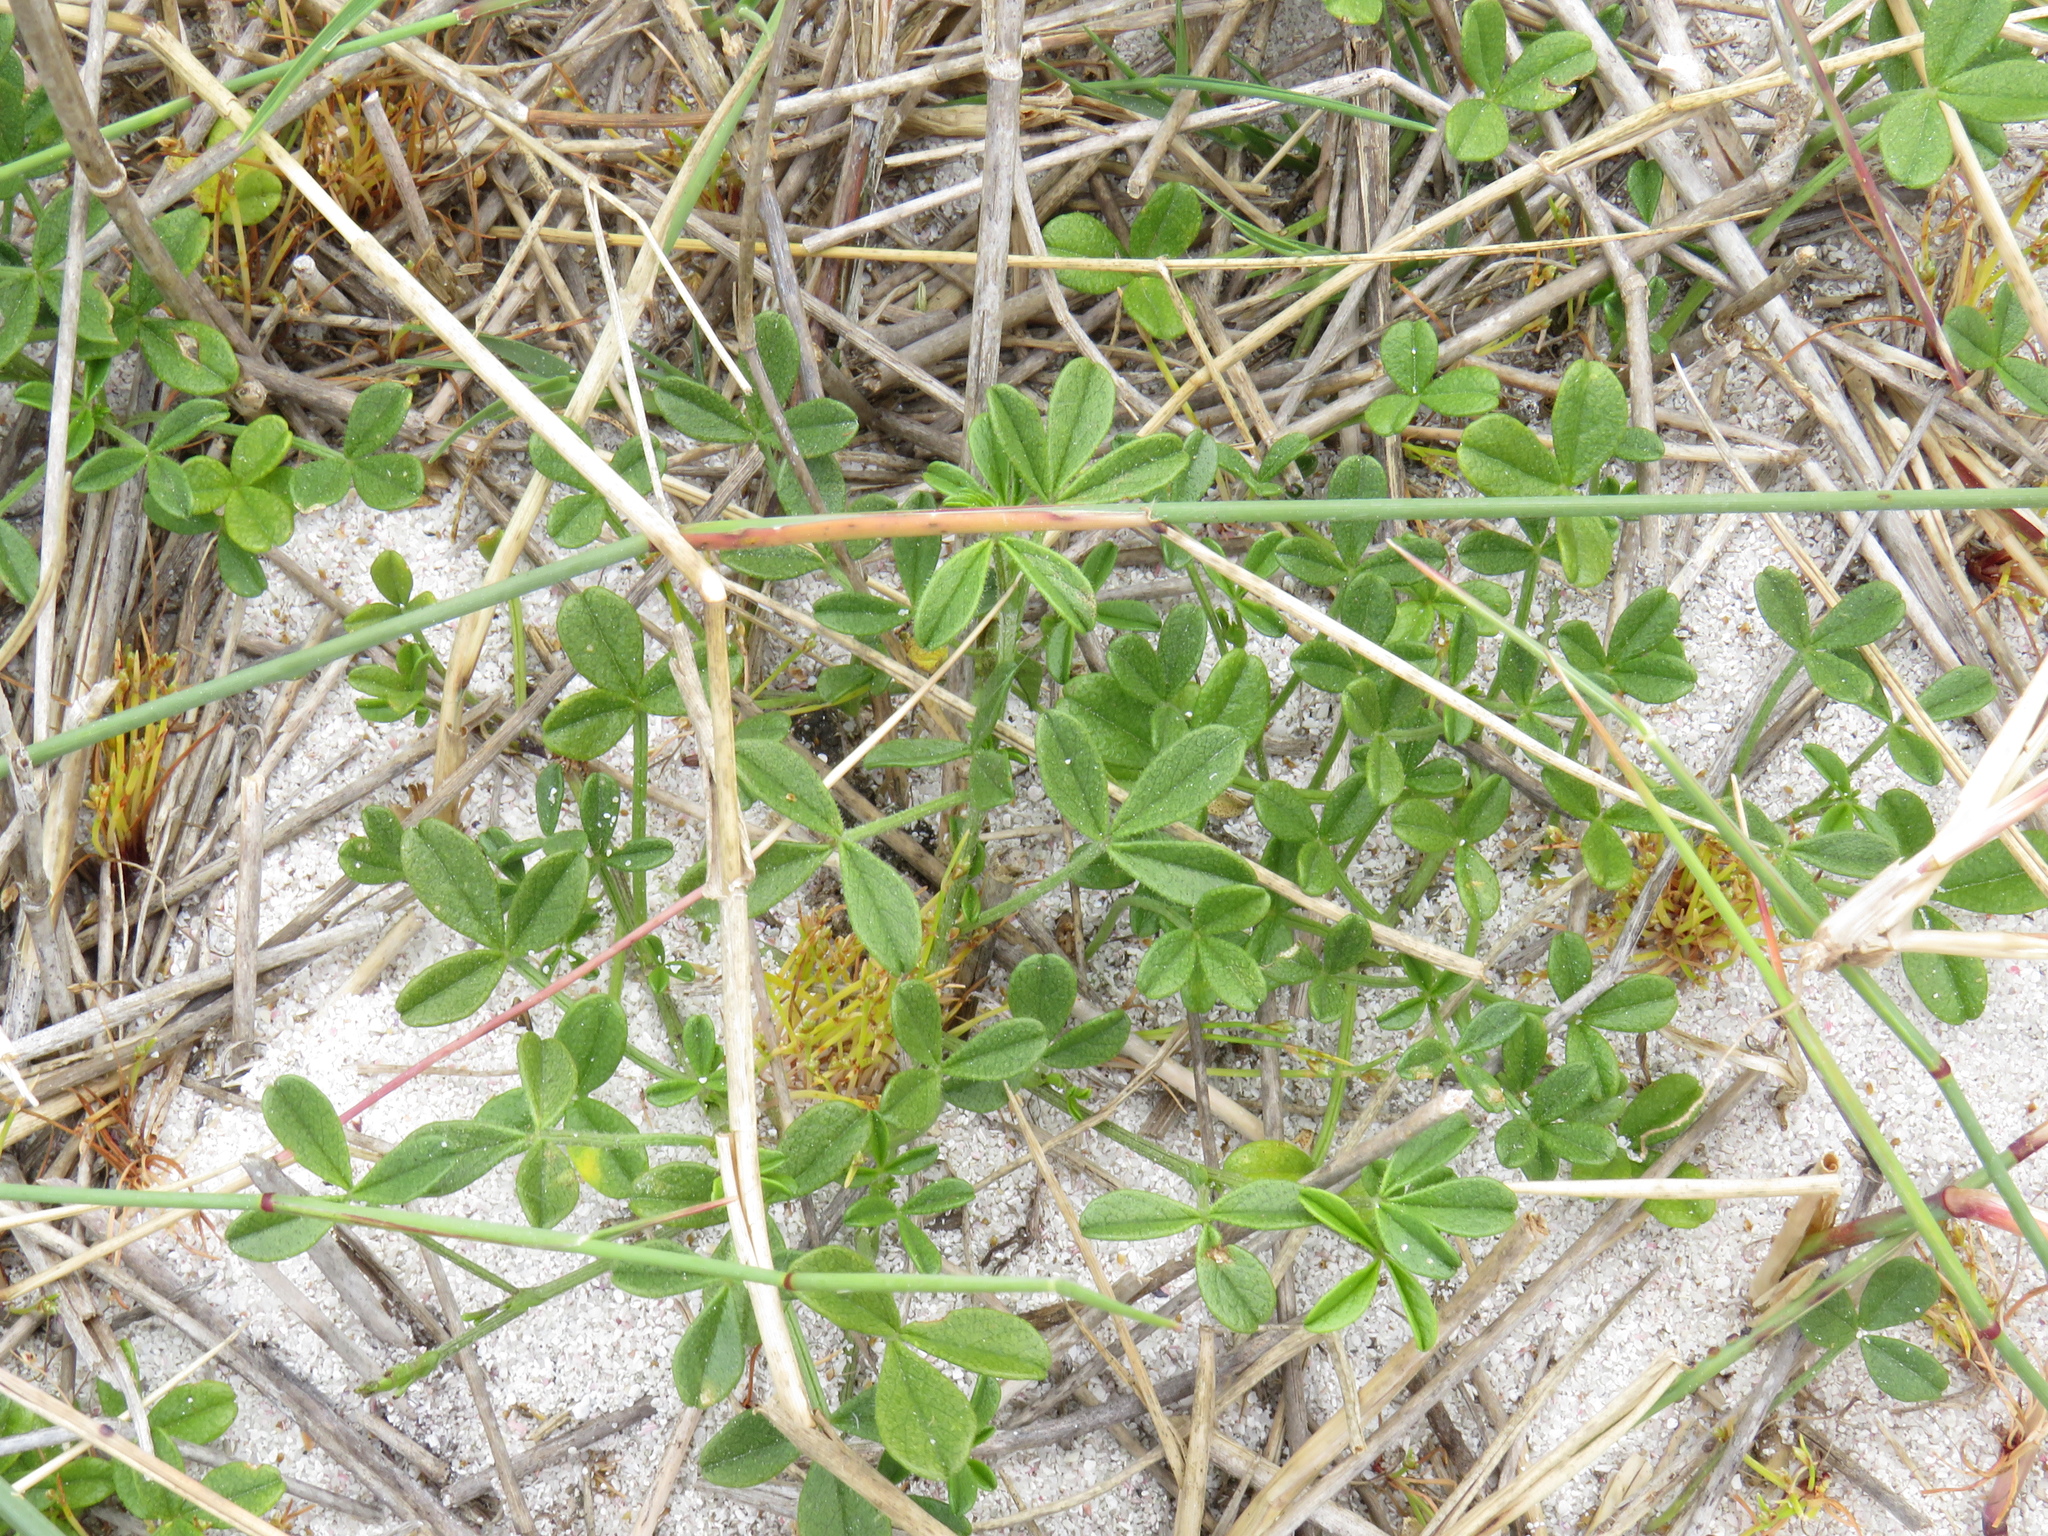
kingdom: Plantae
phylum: Tracheophyta
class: Magnoliopsida
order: Fabales
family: Fabaceae
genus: Psoralea
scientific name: Psoralea repens
